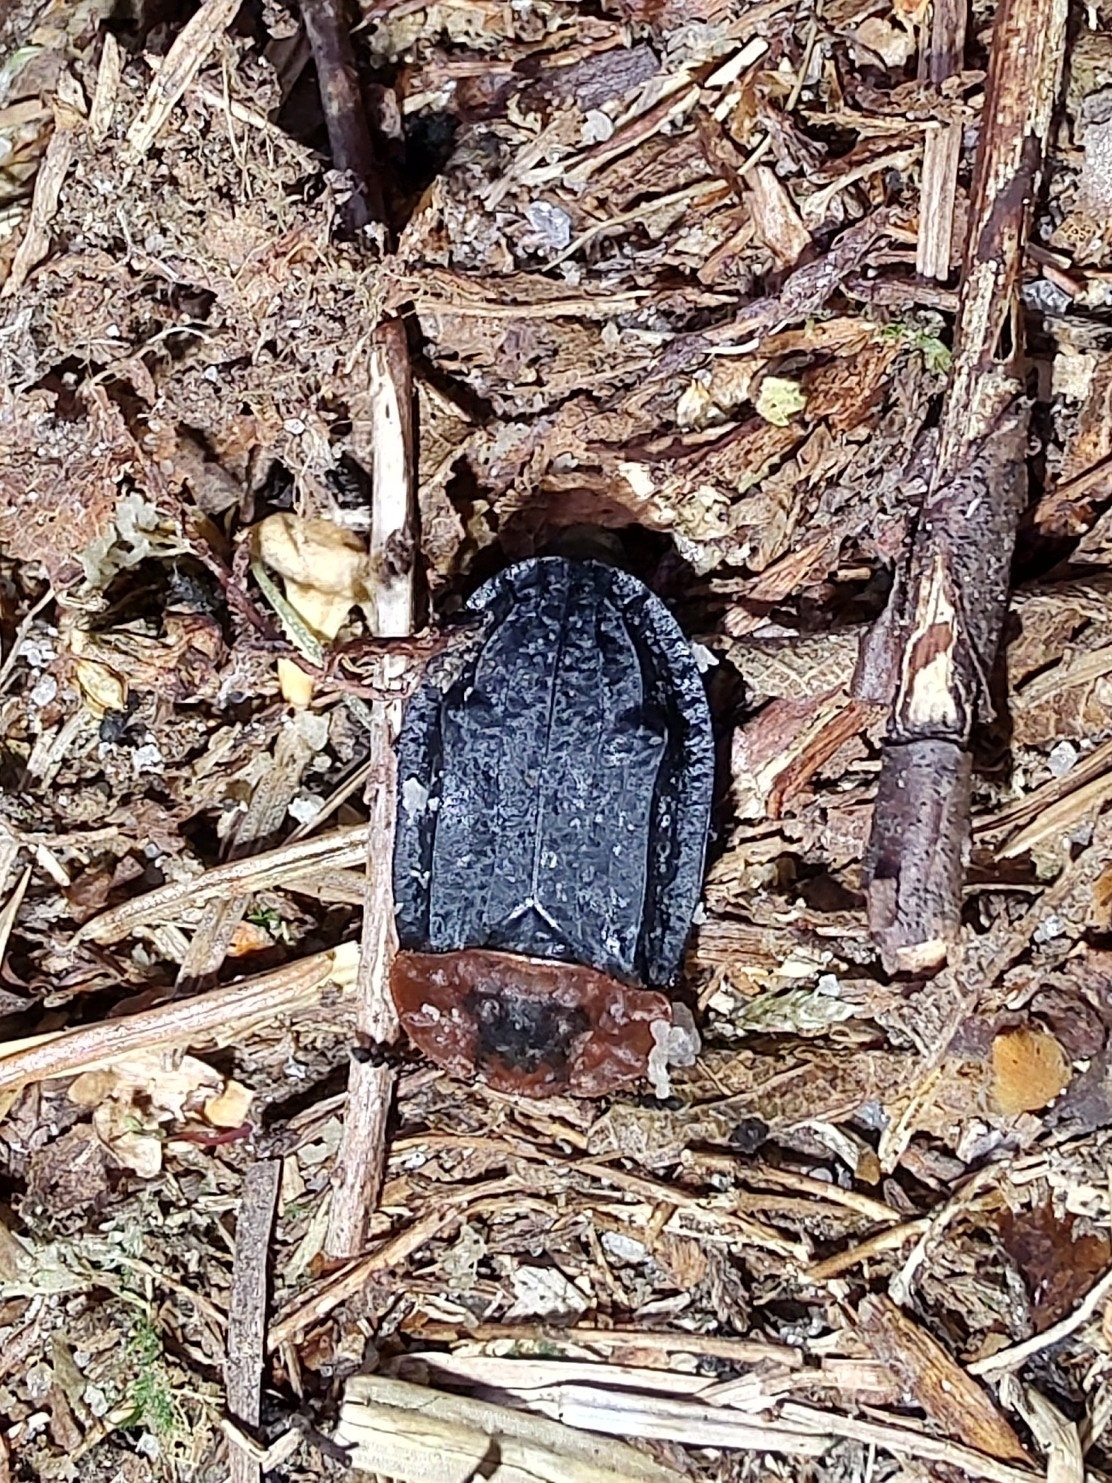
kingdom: Animalia
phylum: Arthropoda
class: Insecta
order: Coleoptera
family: Staphylinidae
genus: Oiceoptoma
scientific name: Oiceoptoma thoracicum
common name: Red-breasted carrion beetle
